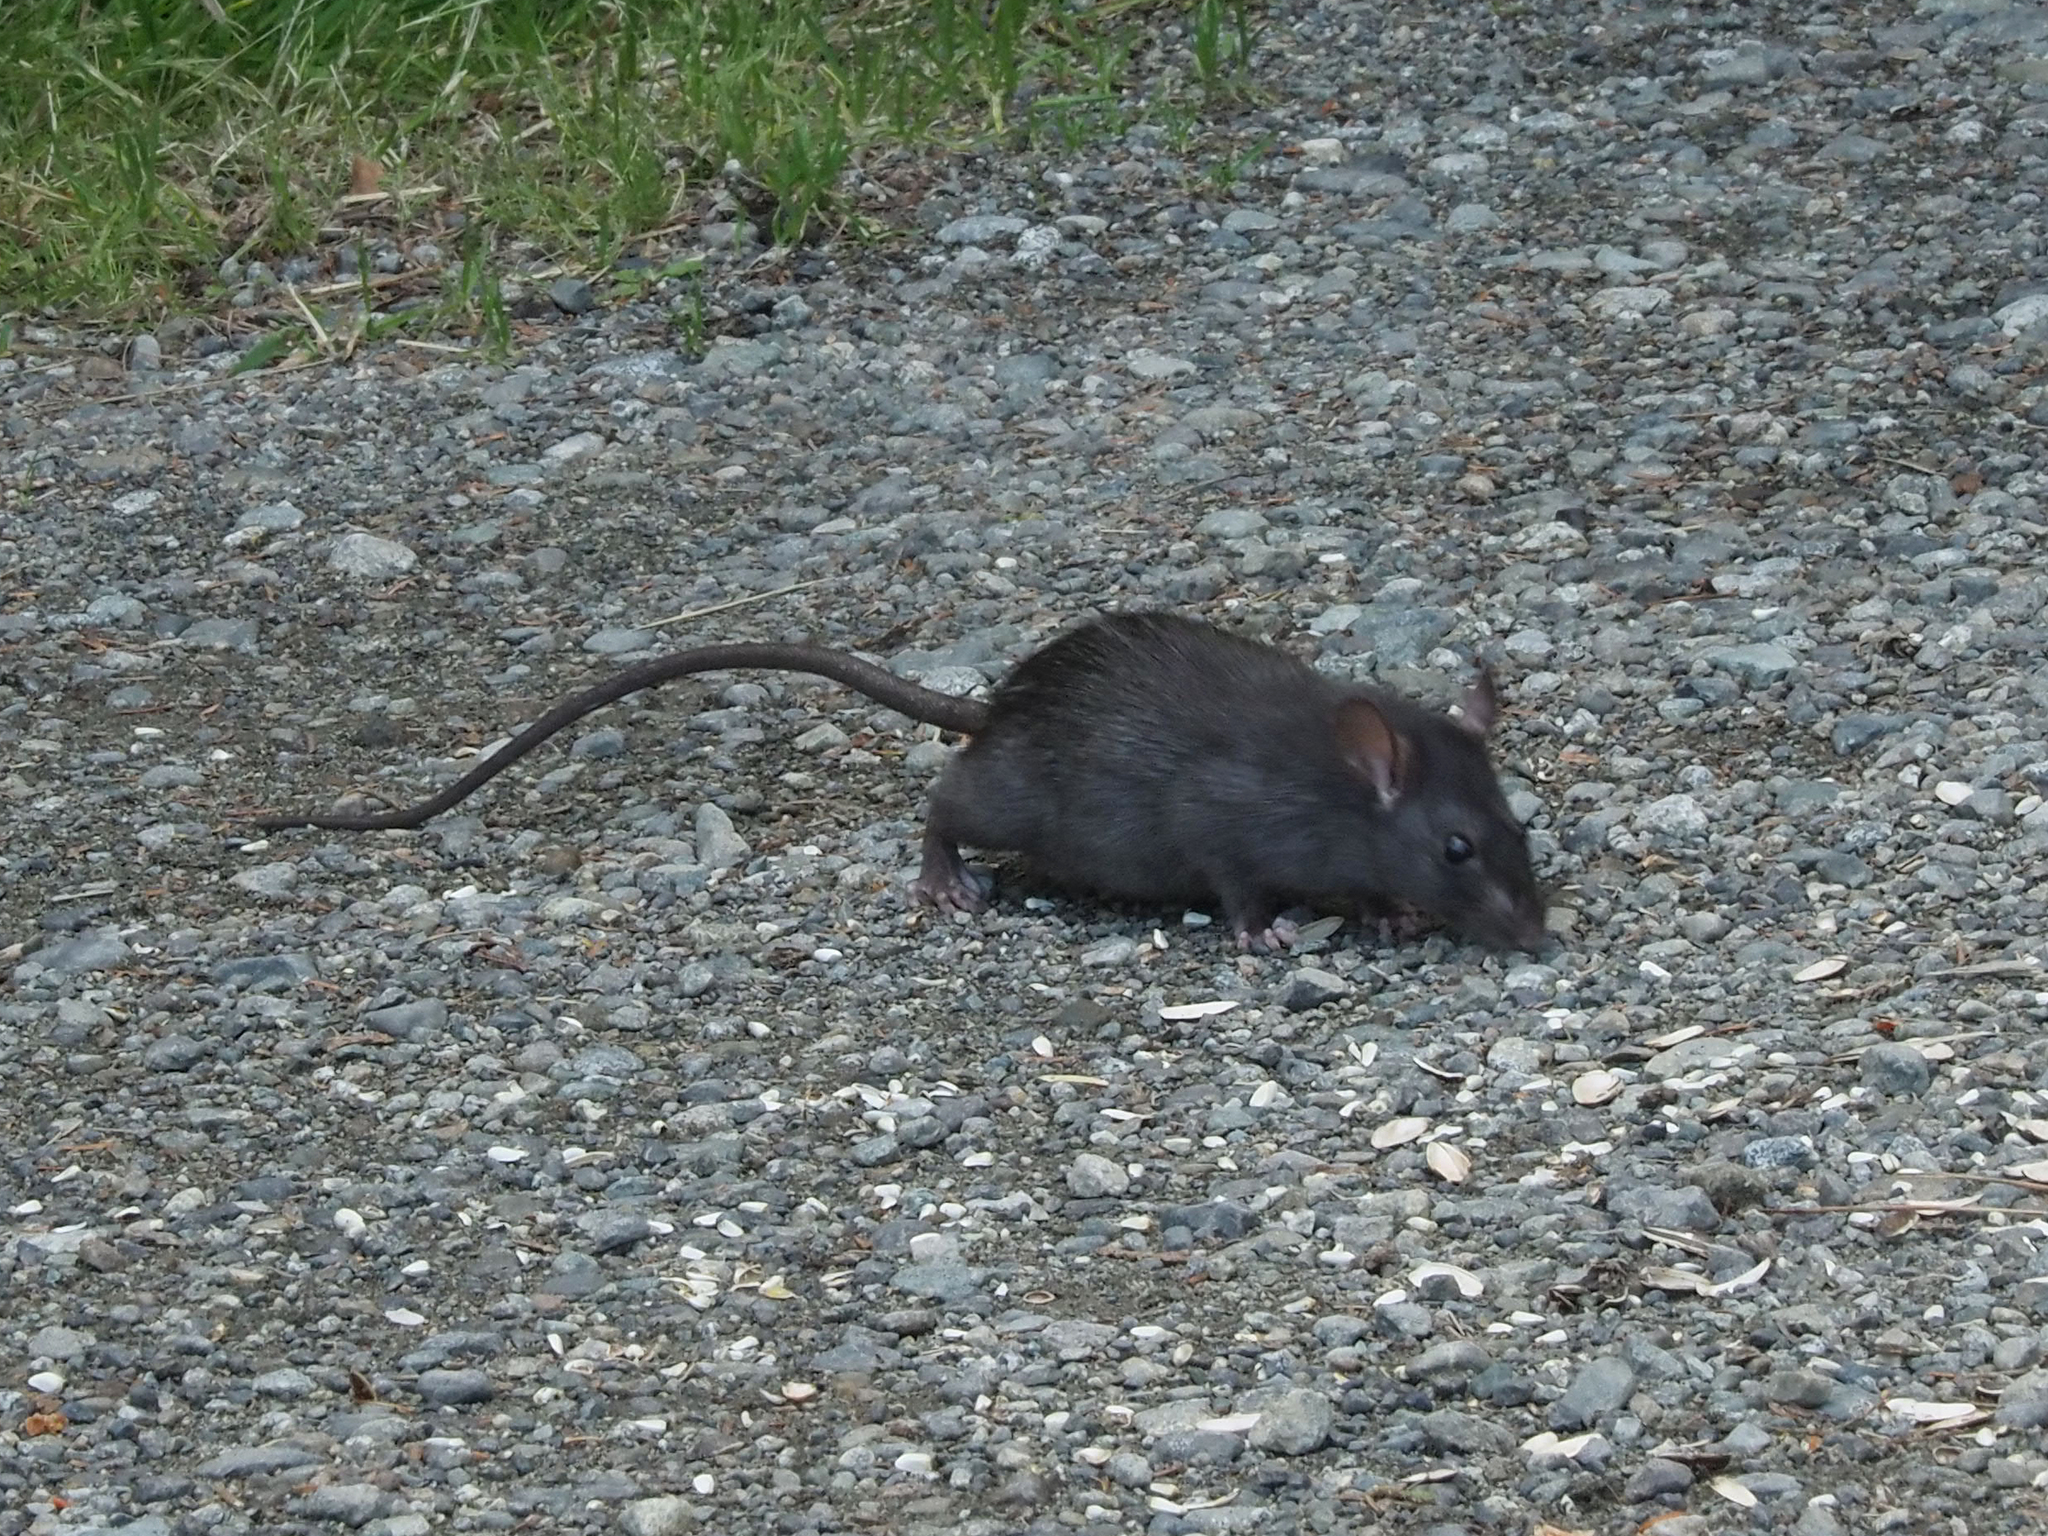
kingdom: Animalia
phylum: Chordata
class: Mammalia
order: Rodentia
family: Muridae
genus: Rattus
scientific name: Rattus rattus
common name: Black rat
